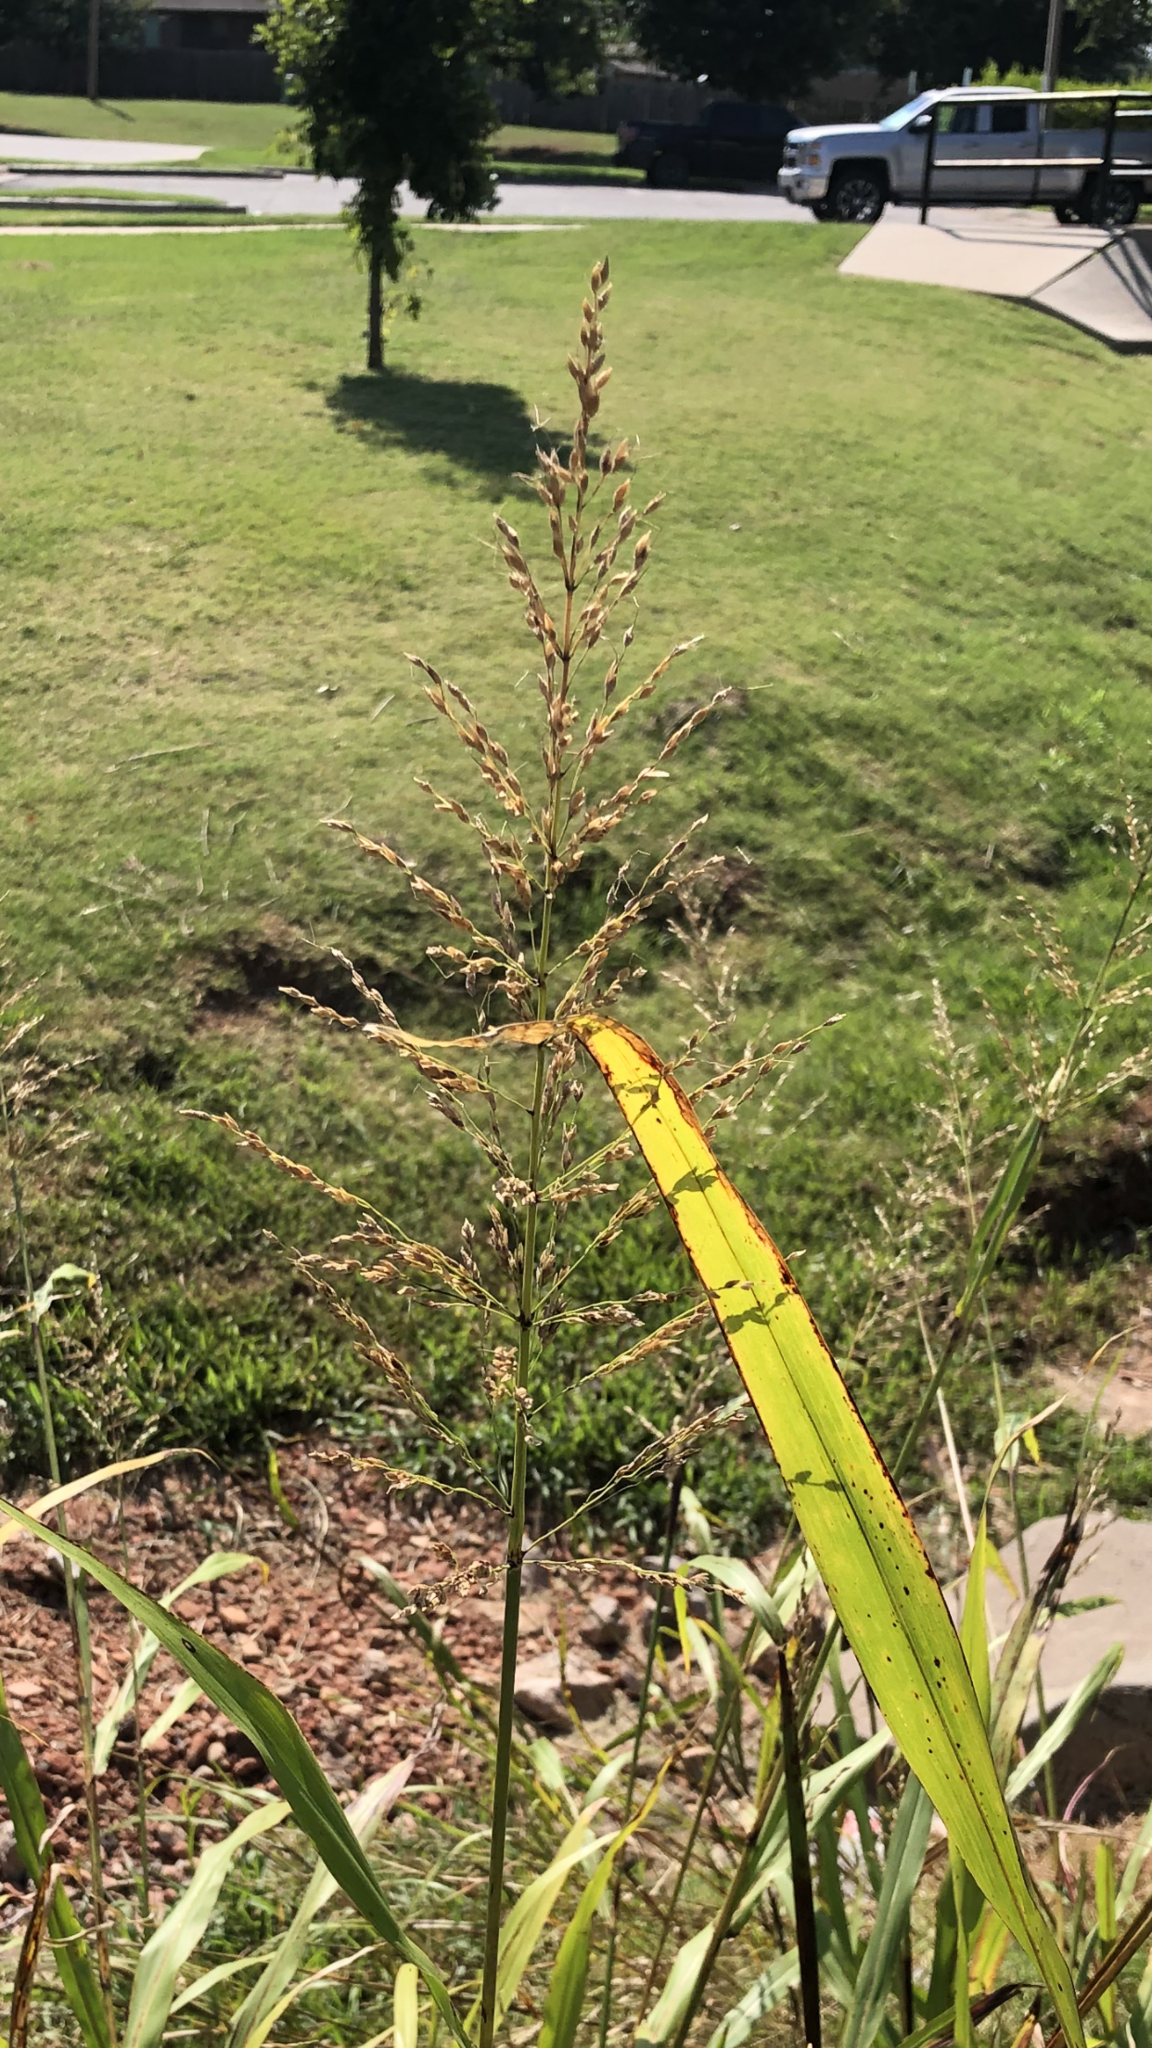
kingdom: Plantae
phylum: Tracheophyta
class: Liliopsida
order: Poales
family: Poaceae
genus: Sorghum
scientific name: Sorghum halepense
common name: Johnson-grass
